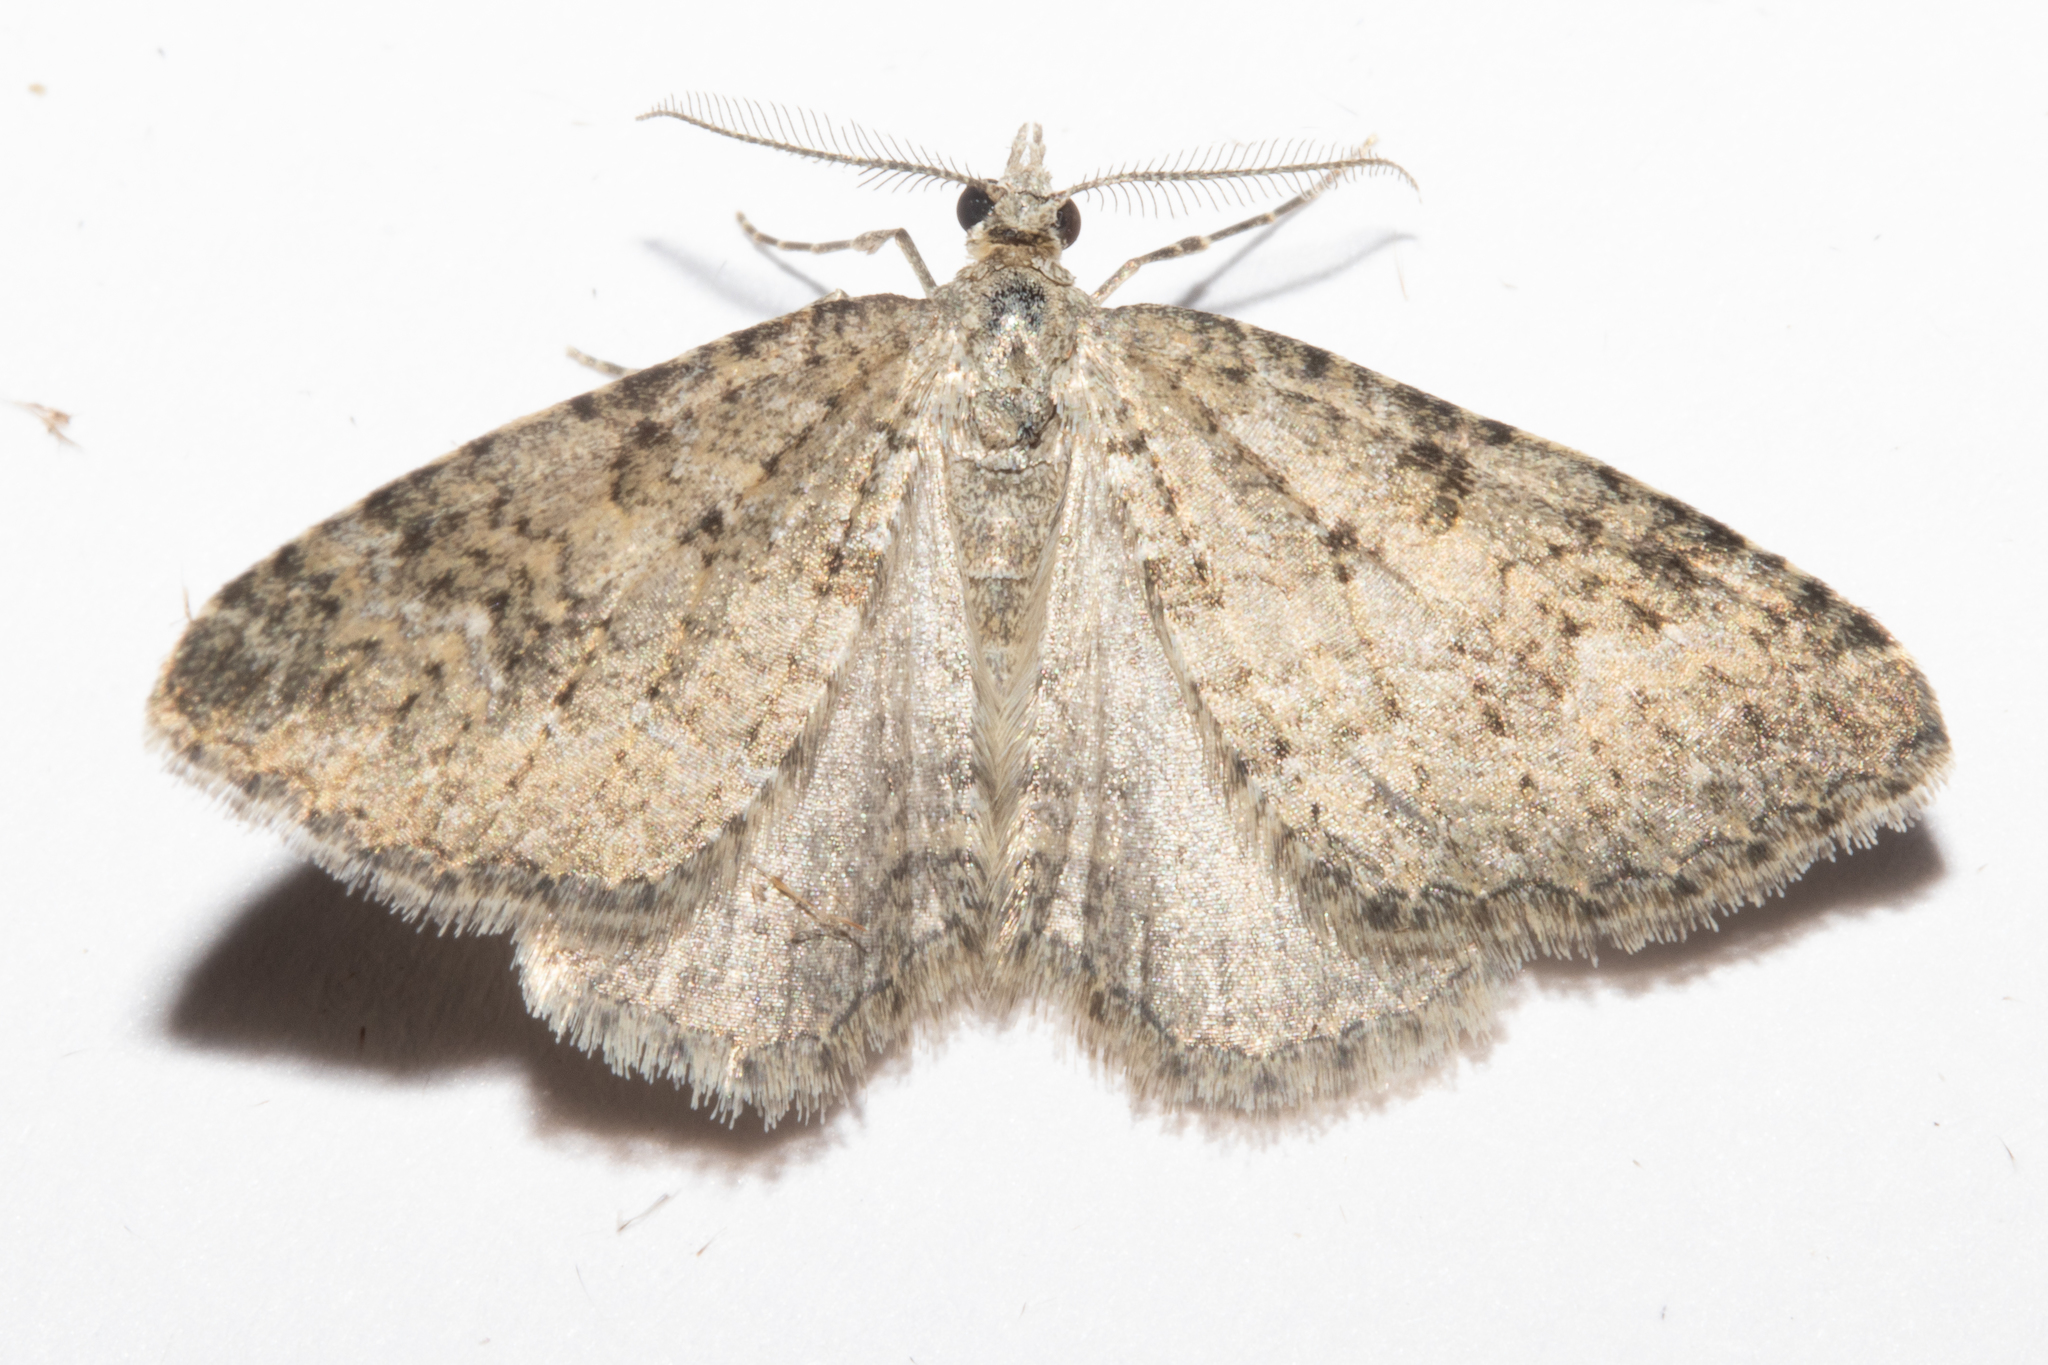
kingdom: Animalia
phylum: Arthropoda
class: Insecta
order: Lepidoptera
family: Geometridae
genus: Helastia
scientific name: Helastia corcularia
